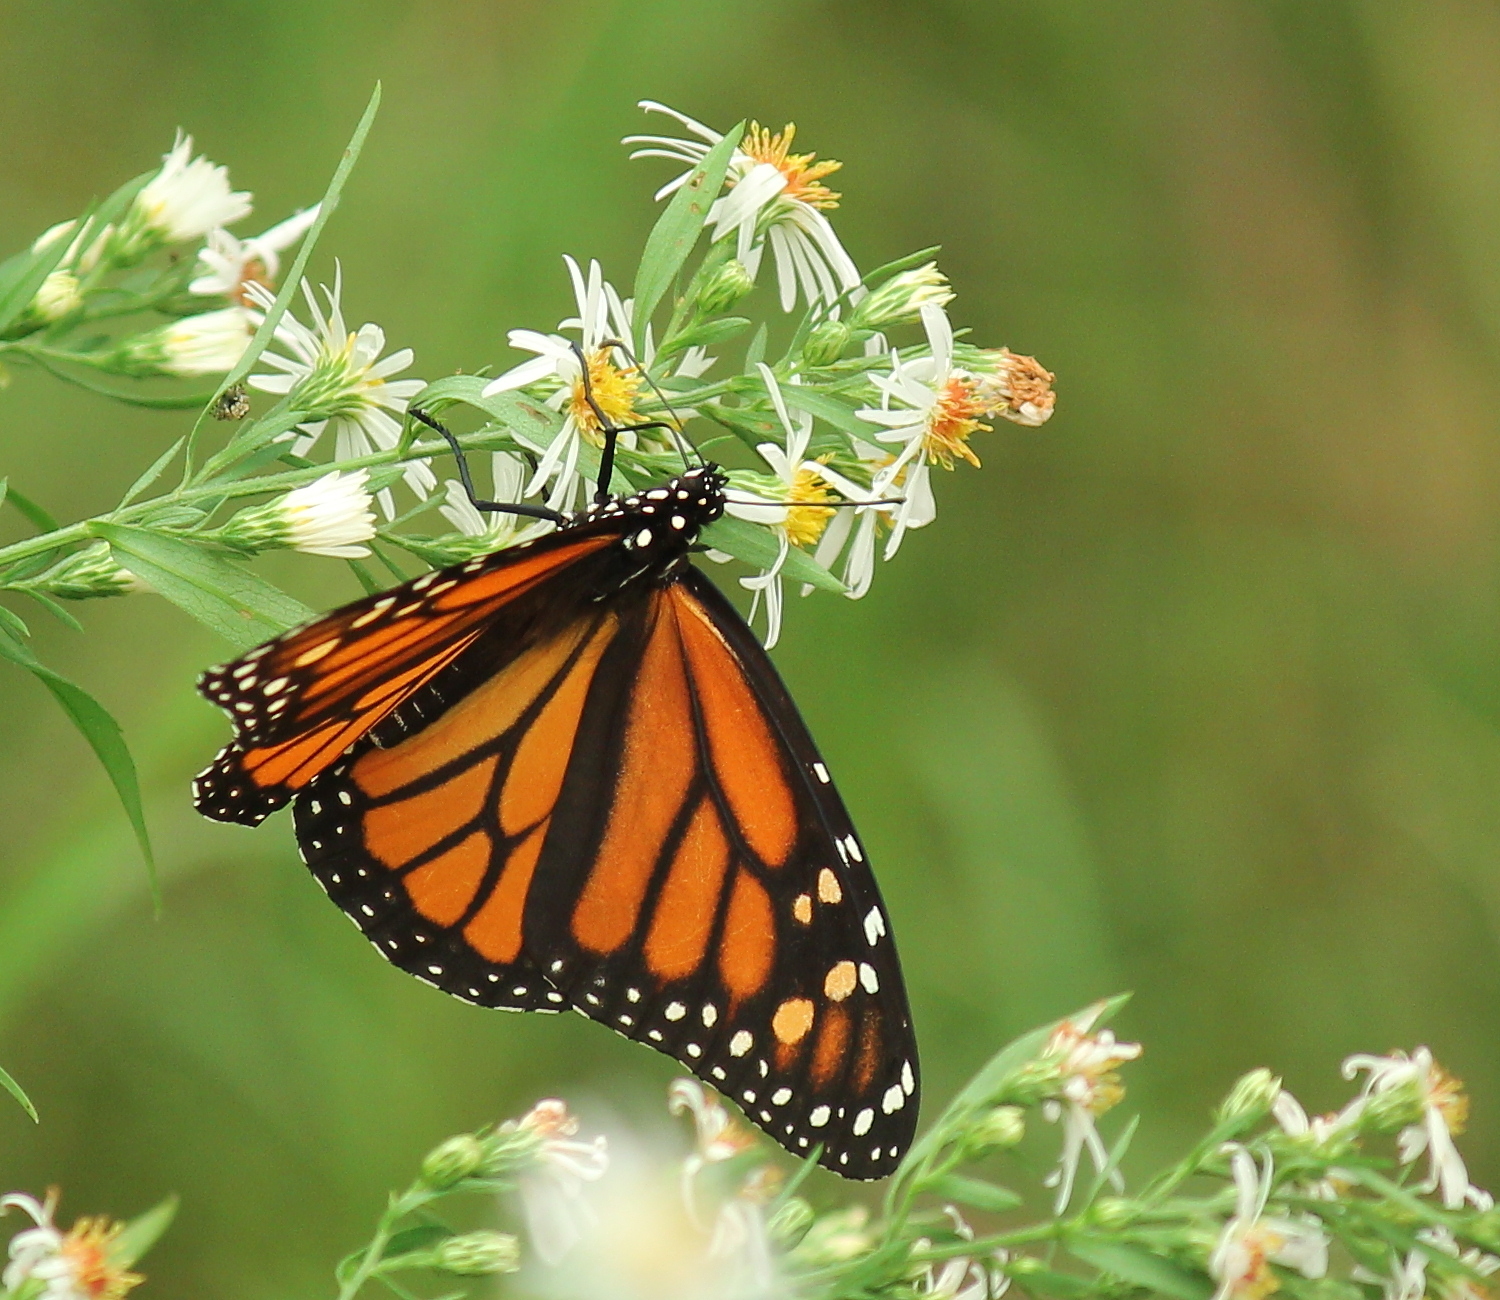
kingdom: Animalia
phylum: Arthropoda
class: Insecta
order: Lepidoptera
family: Nymphalidae
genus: Danaus
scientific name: Danaus plexippus
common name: Monarch
